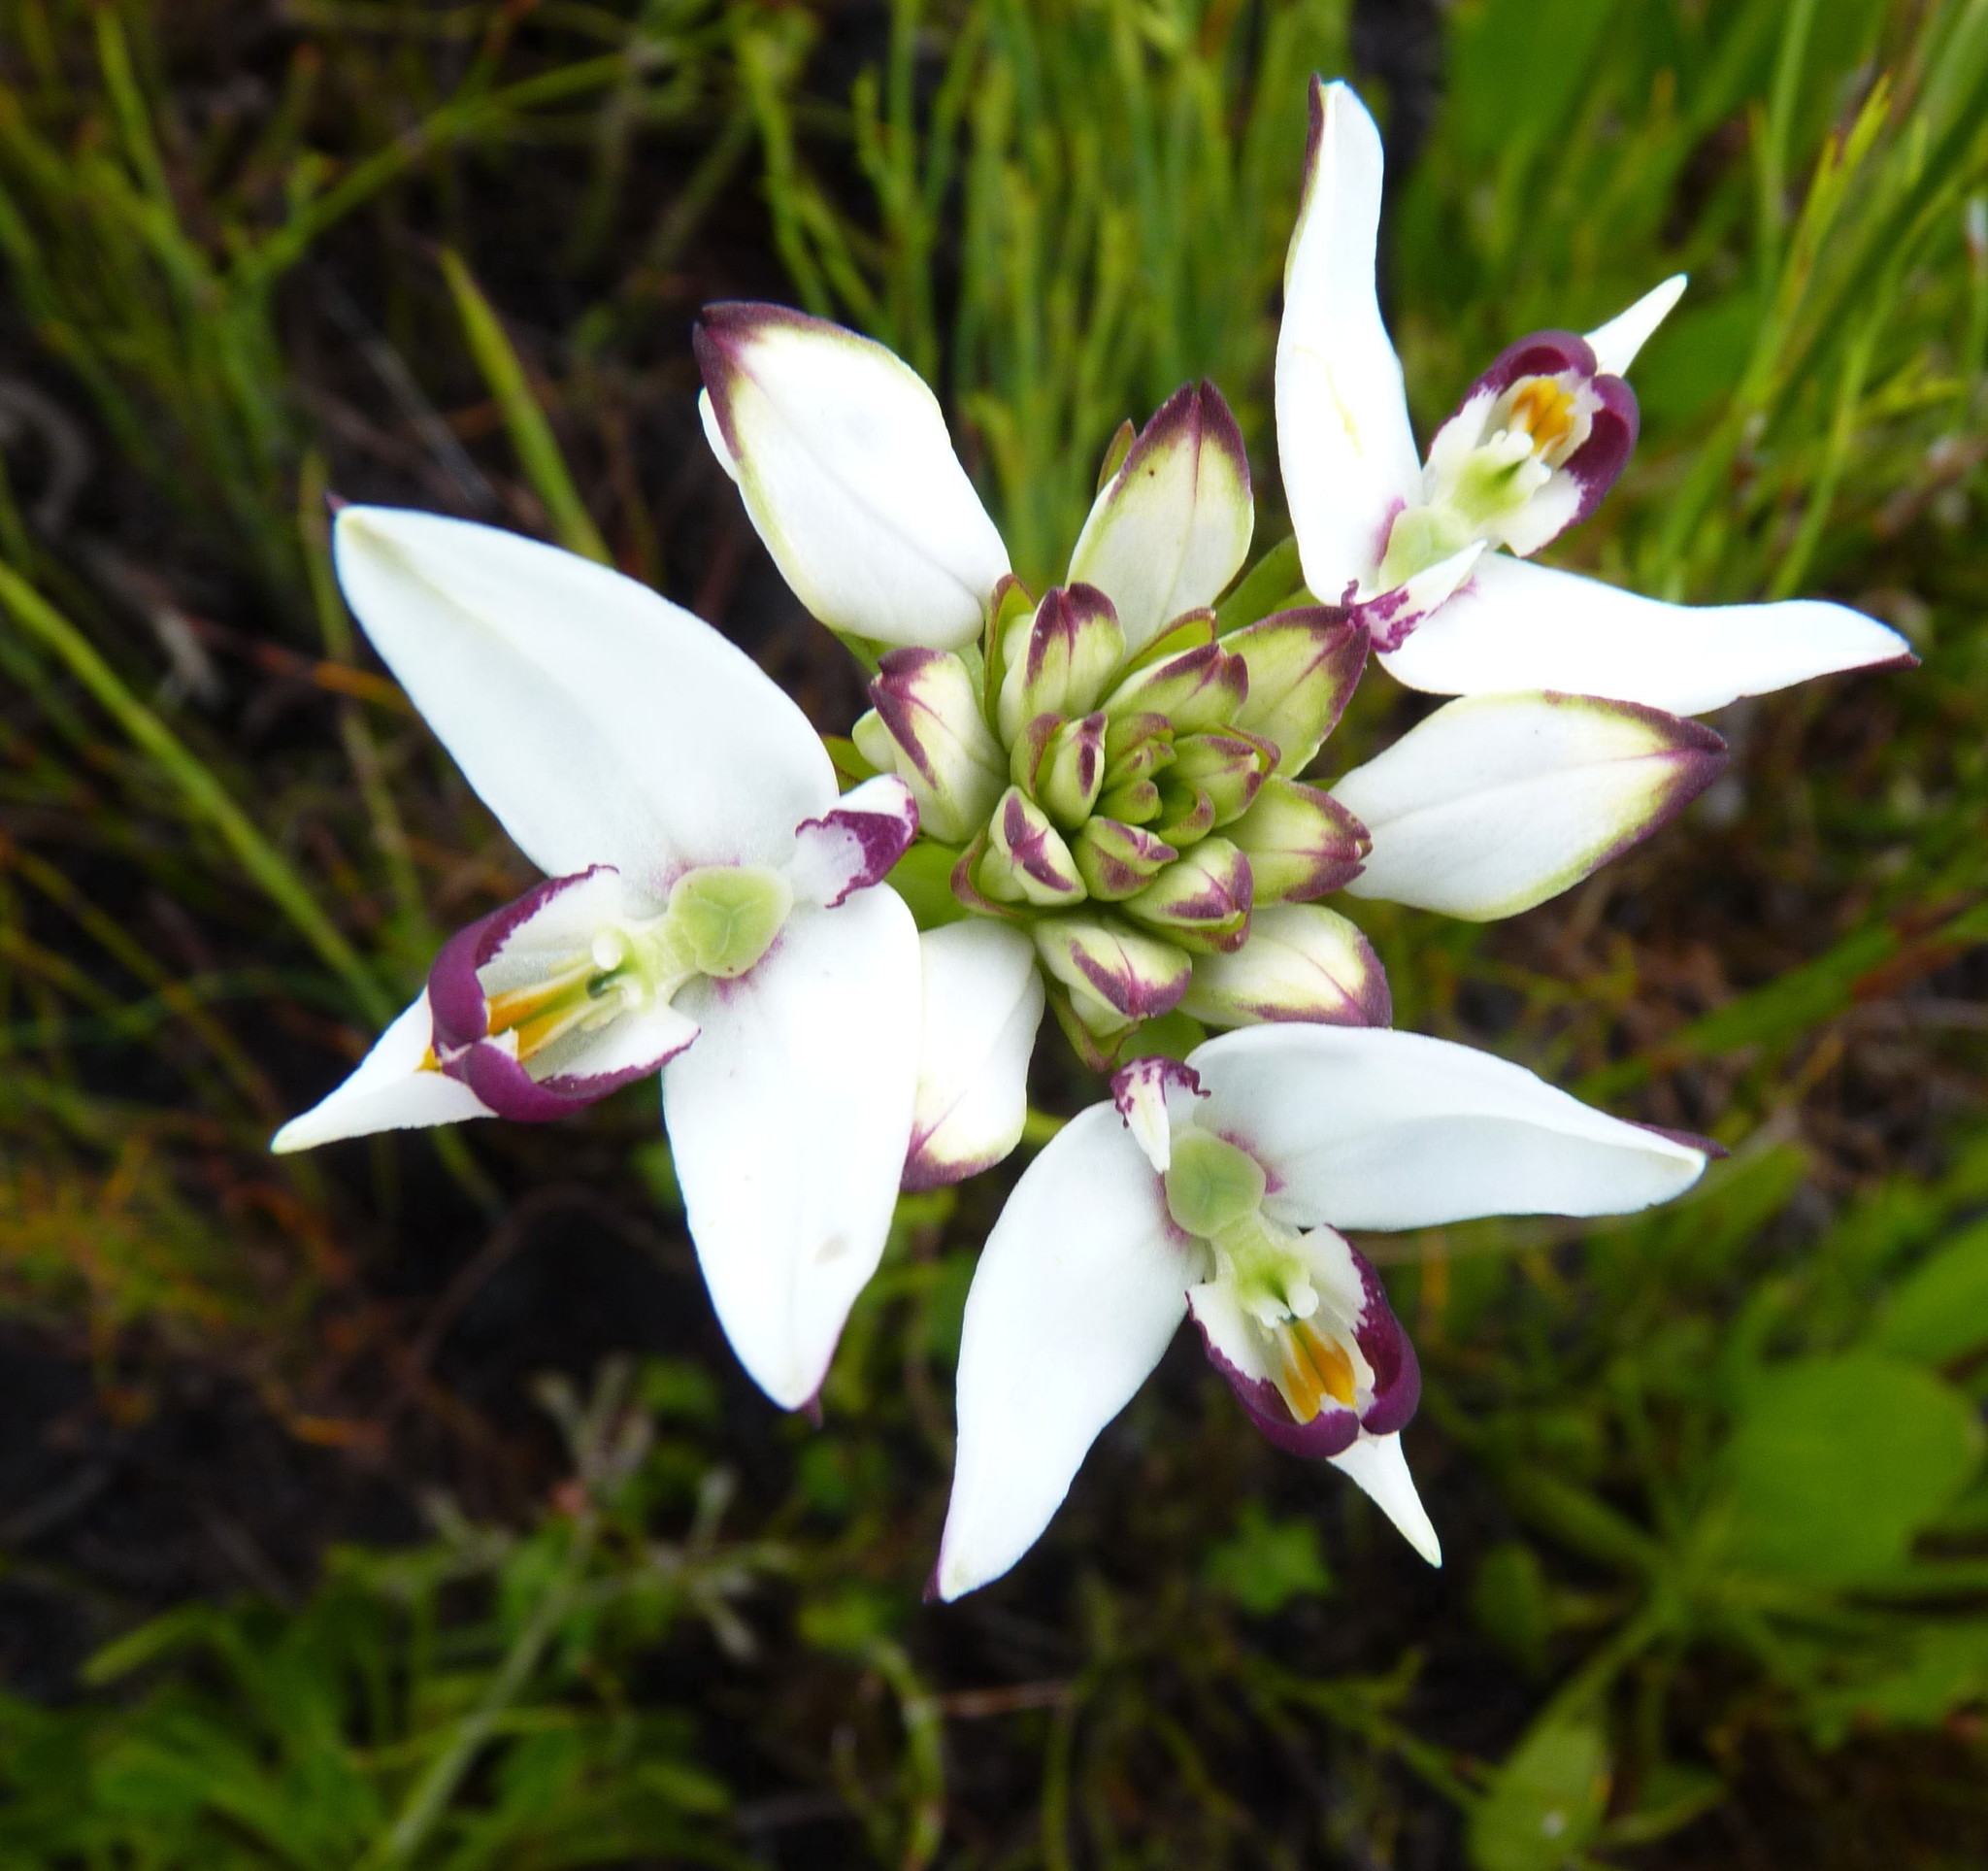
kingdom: Plantae
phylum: Tracheophyta
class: Liliopsida
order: Asparagales
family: Orchidaceae
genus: Disa
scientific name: Disa bivalvata
